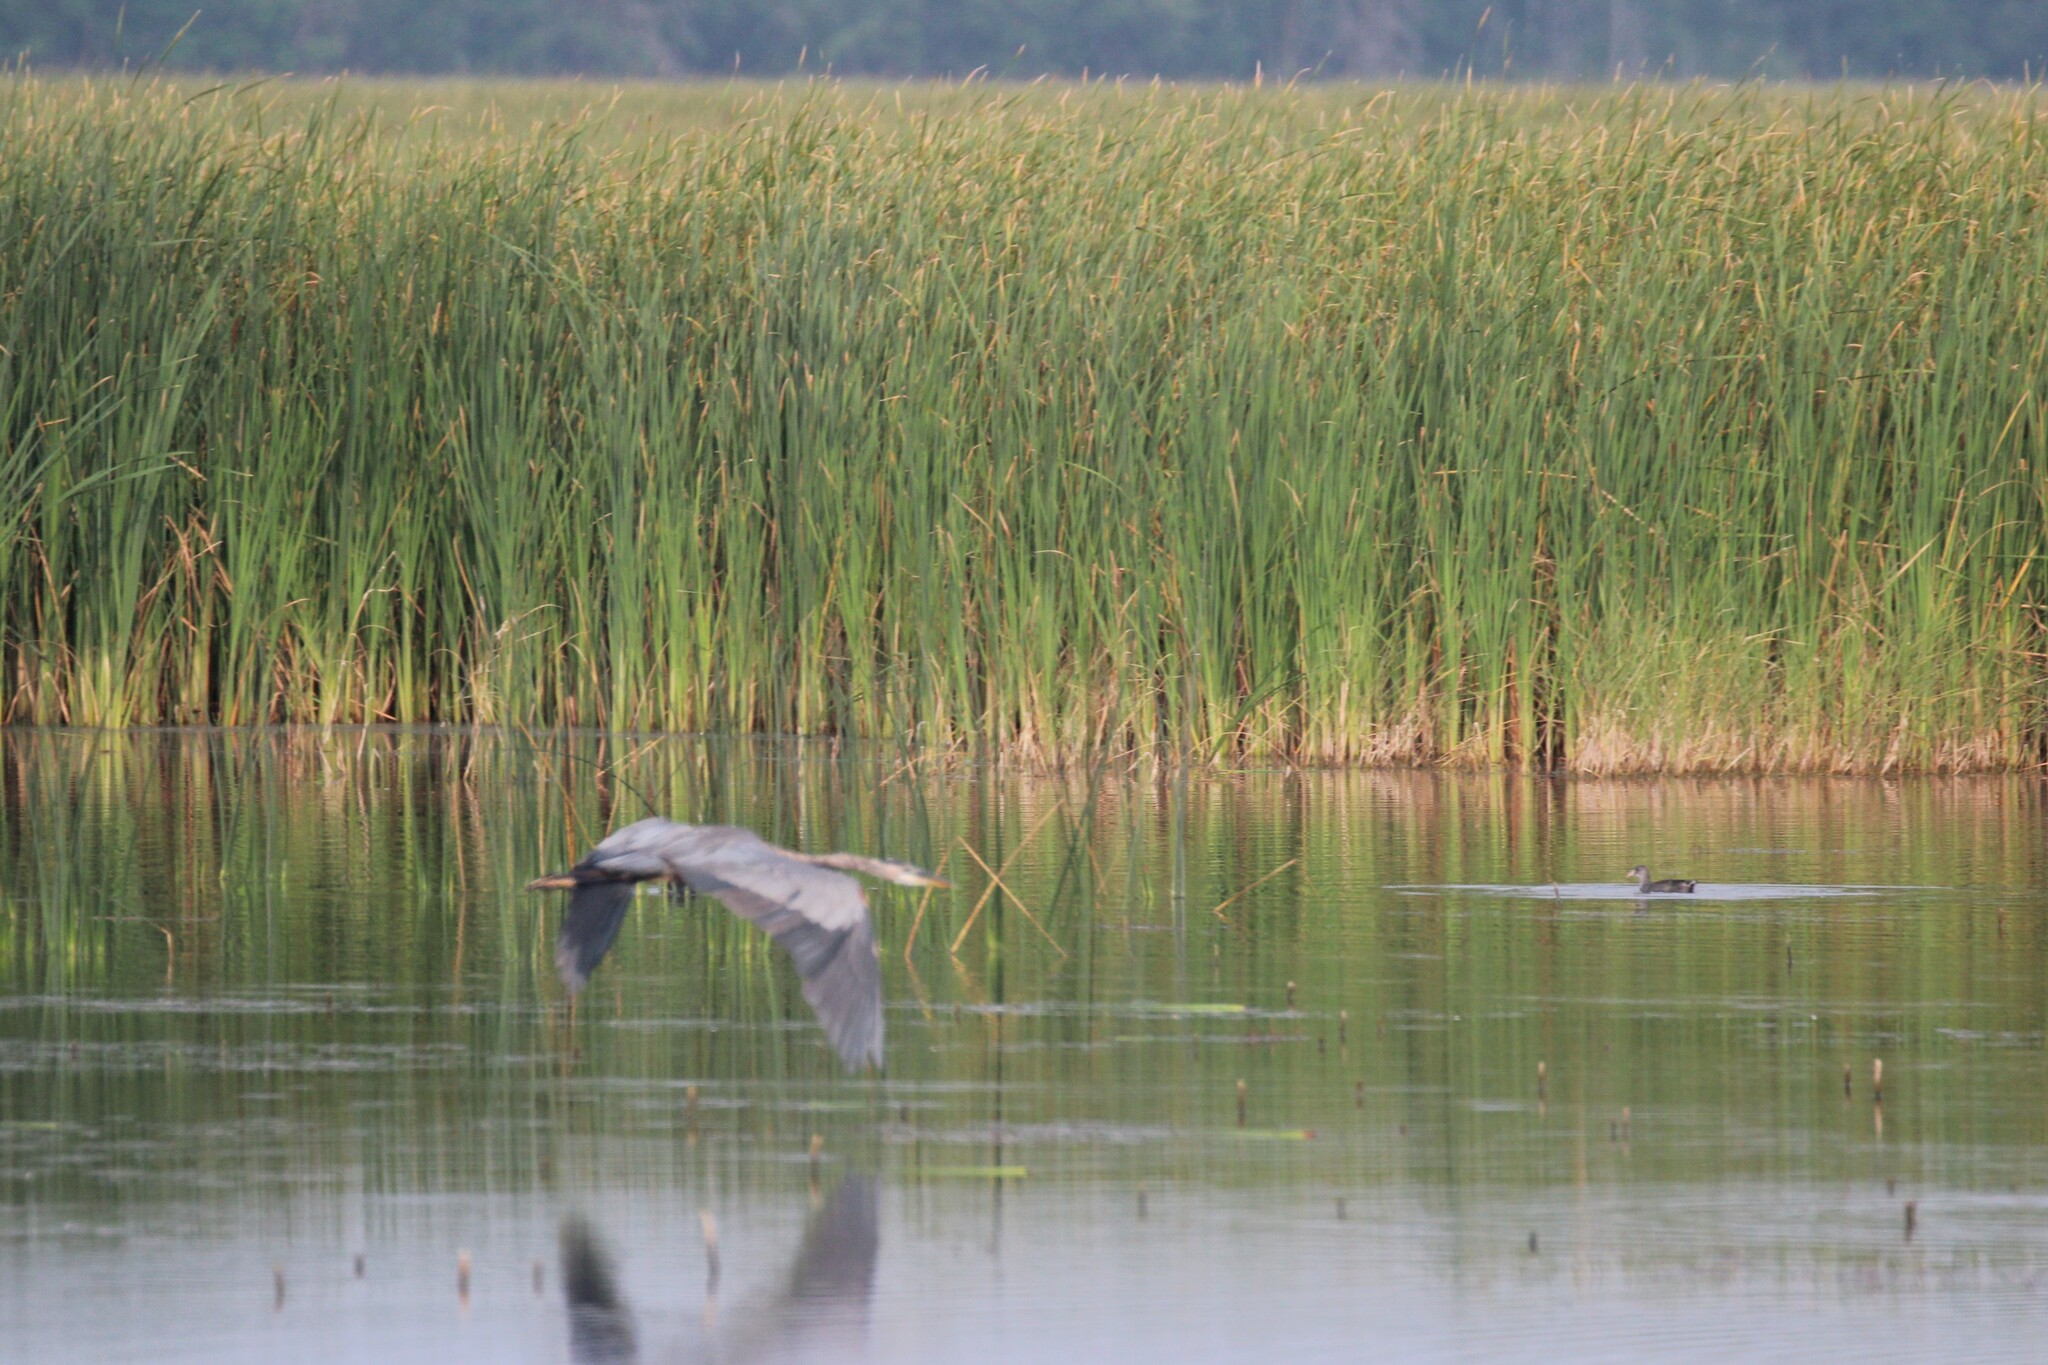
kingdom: Animalia
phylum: Chordata
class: Aves
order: Pelecaniformes
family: Ardeidae
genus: Ardea
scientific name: Ardea herodias
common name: Great blue heron
